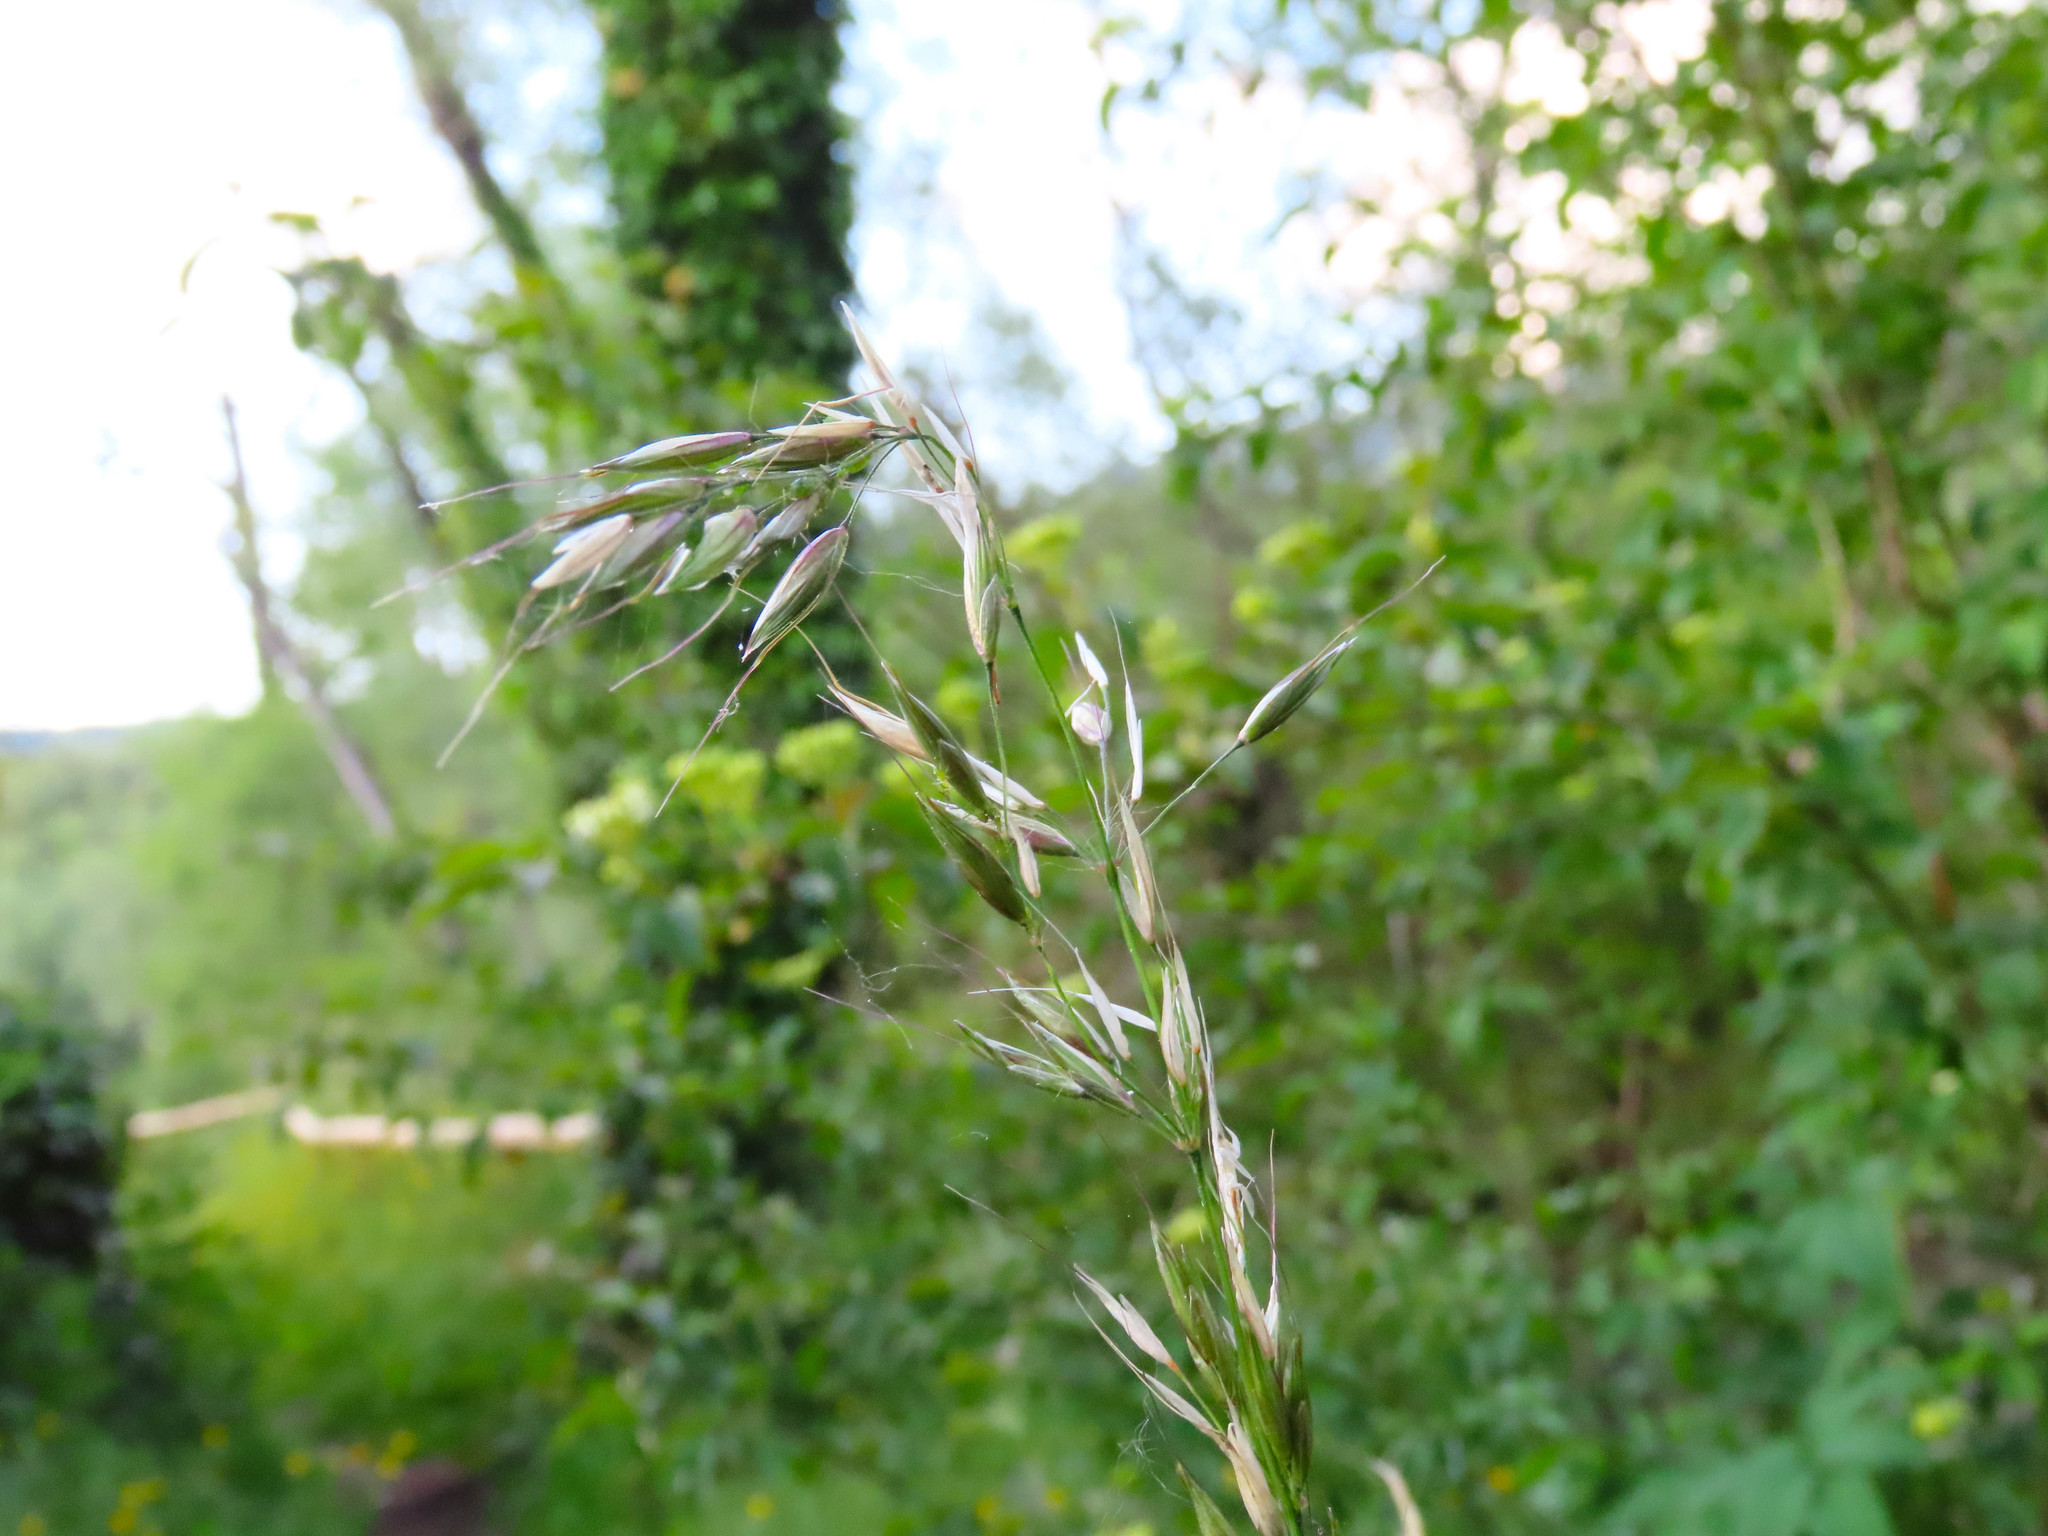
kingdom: Plantae
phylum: Tracheophyta
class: Liliopsida
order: Poales
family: Poaceae
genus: Arrhenatherum
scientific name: Arrhenatherum elatius
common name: Tall oatgrass
